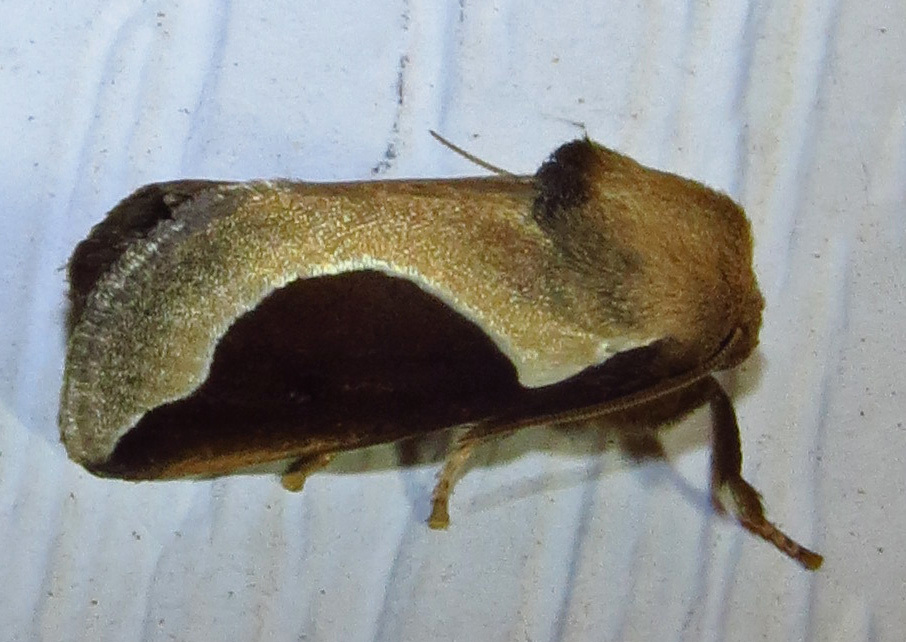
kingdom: Animalia
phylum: Arthropoda
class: Insecta
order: Lepidoptera
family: Limacodidae
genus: Prolimacodes
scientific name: Prolimacodes badia
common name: Skiff moth
